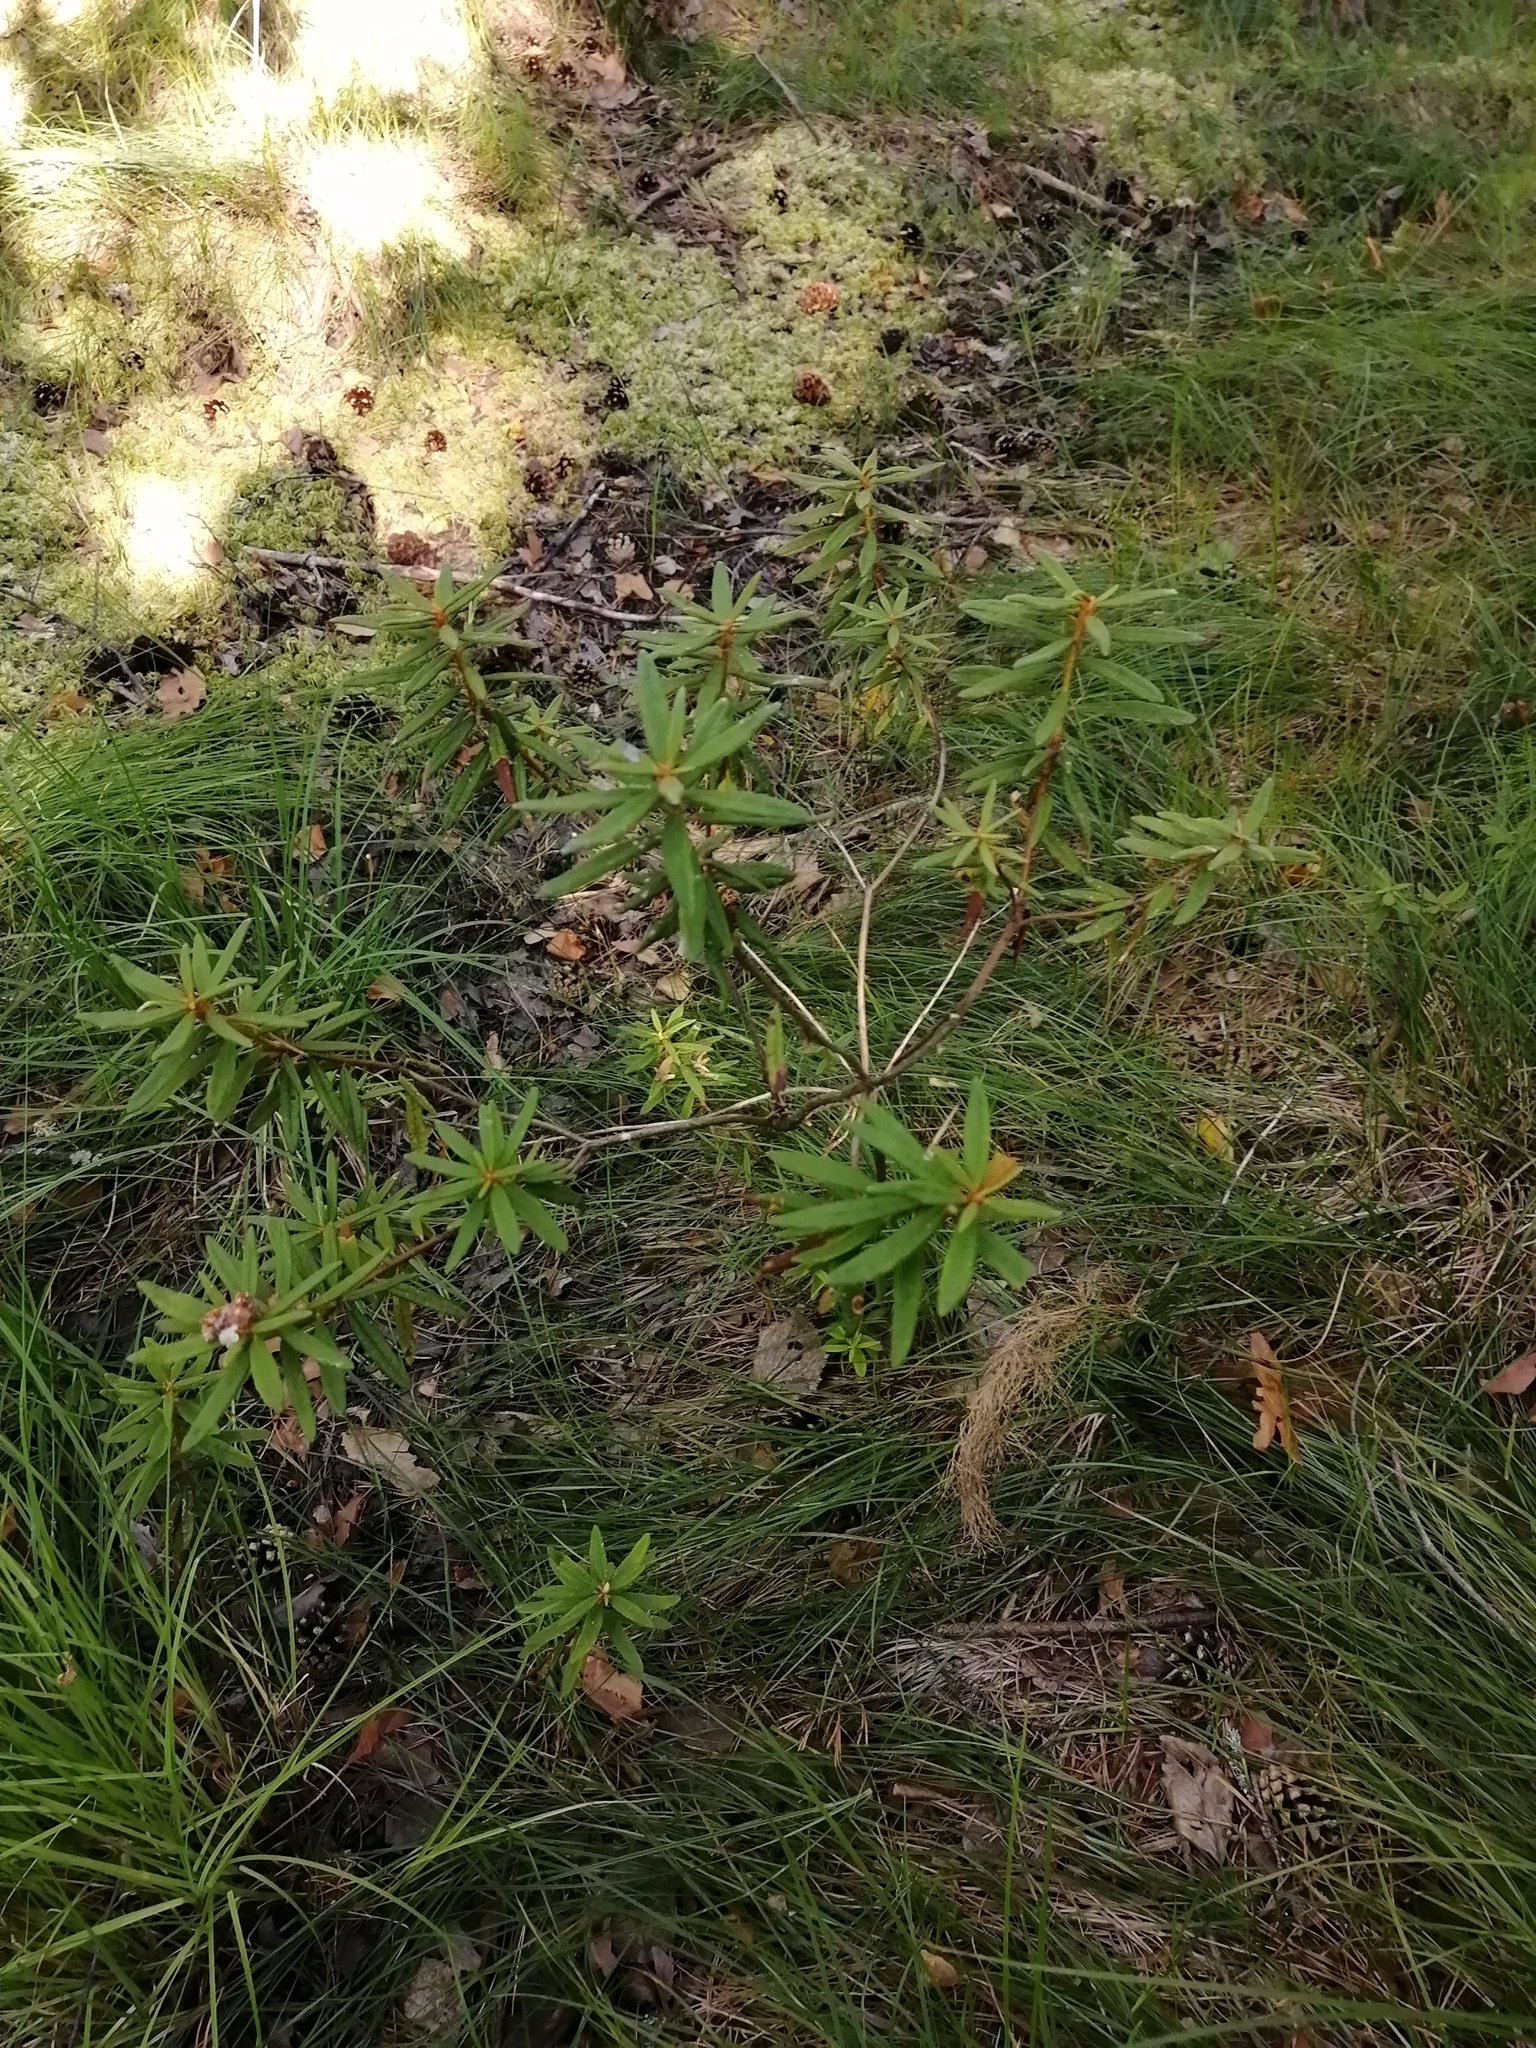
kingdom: Plantae
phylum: Tracheophyta
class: Magnoliopsida
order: Ericales
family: Ericaceae
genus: Rhododendron
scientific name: Rhododendron tomentosum
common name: Marsh labrador tea
